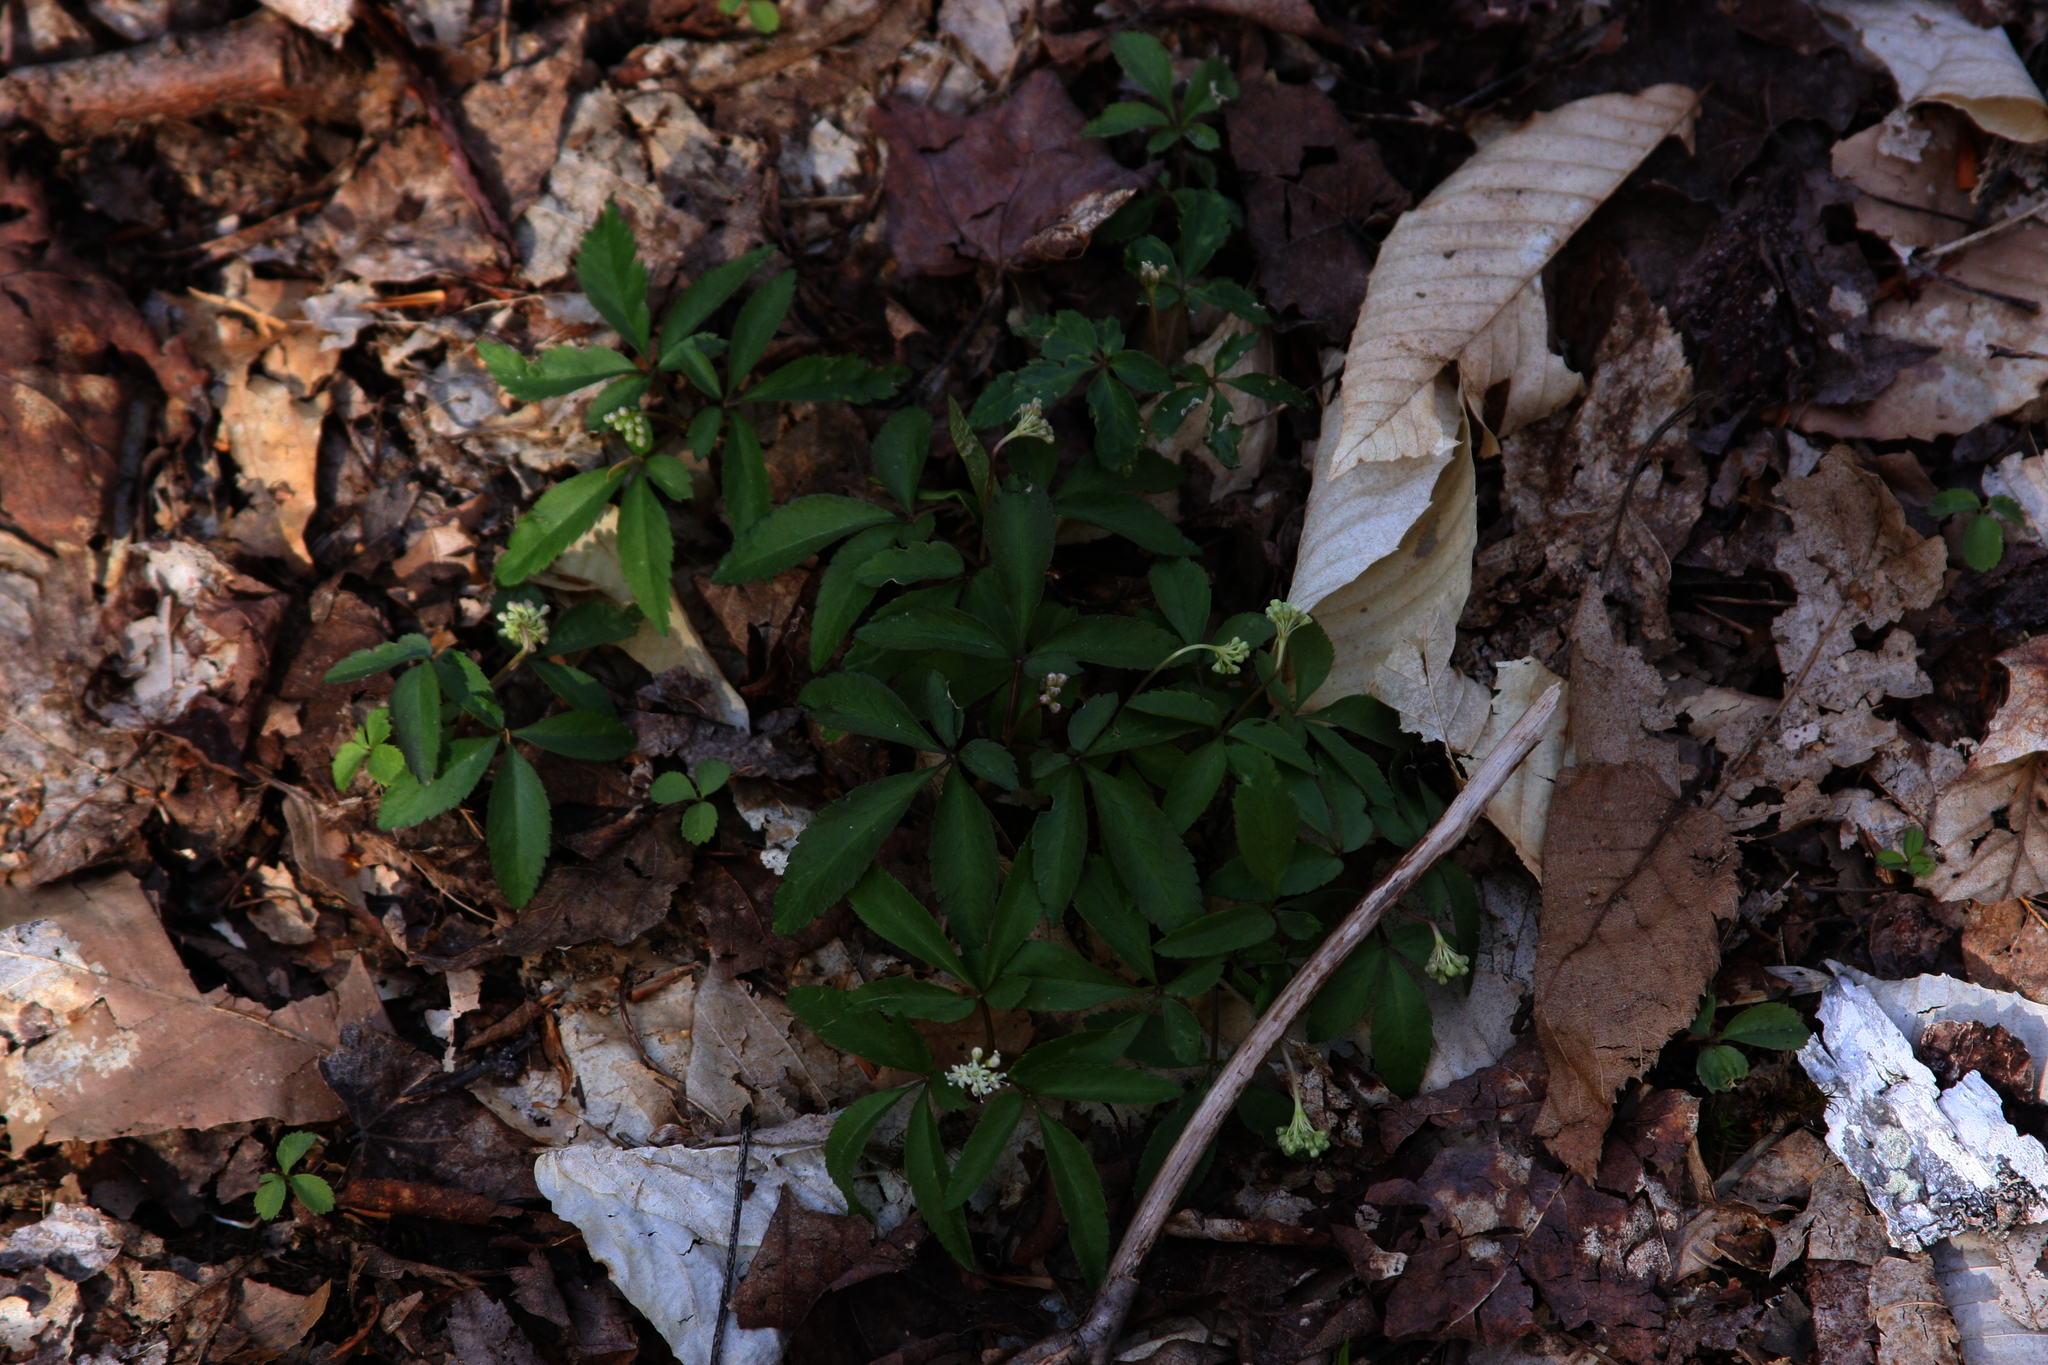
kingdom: Plantae
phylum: Tracheophyta
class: Magnoliopsida
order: Apiales
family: Araliaceae
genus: Panax
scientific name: Panax trifolius
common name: Dwarf ginseng
